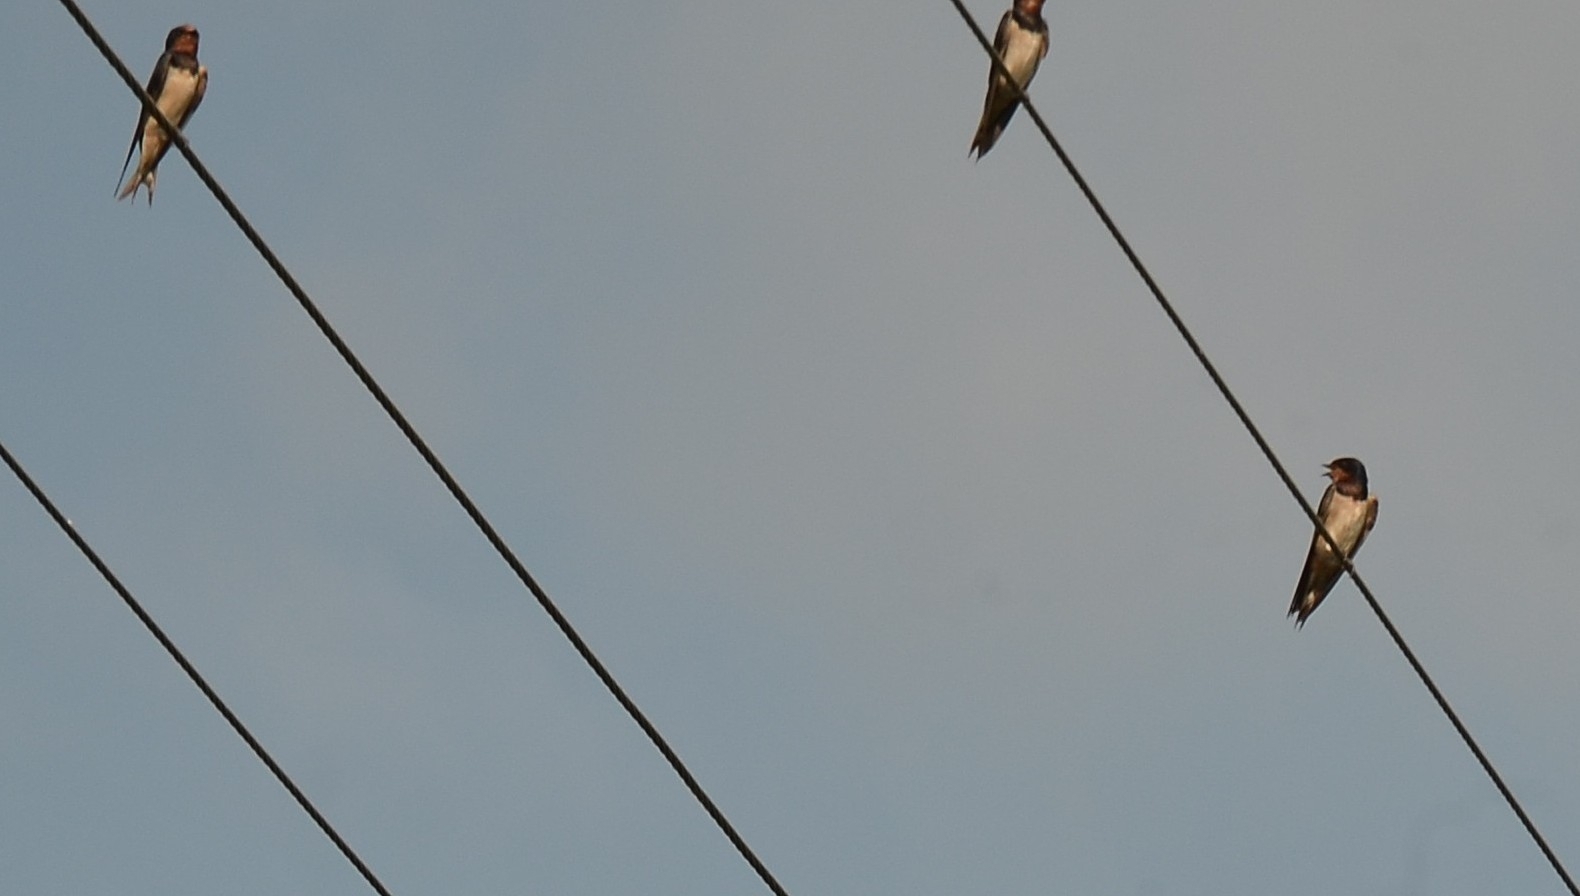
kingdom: Animalia
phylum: Chordata
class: Aves
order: Passeriformes
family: Hirundinidae
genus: Hirundo
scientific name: Hirundo rustica
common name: Barn swallow
